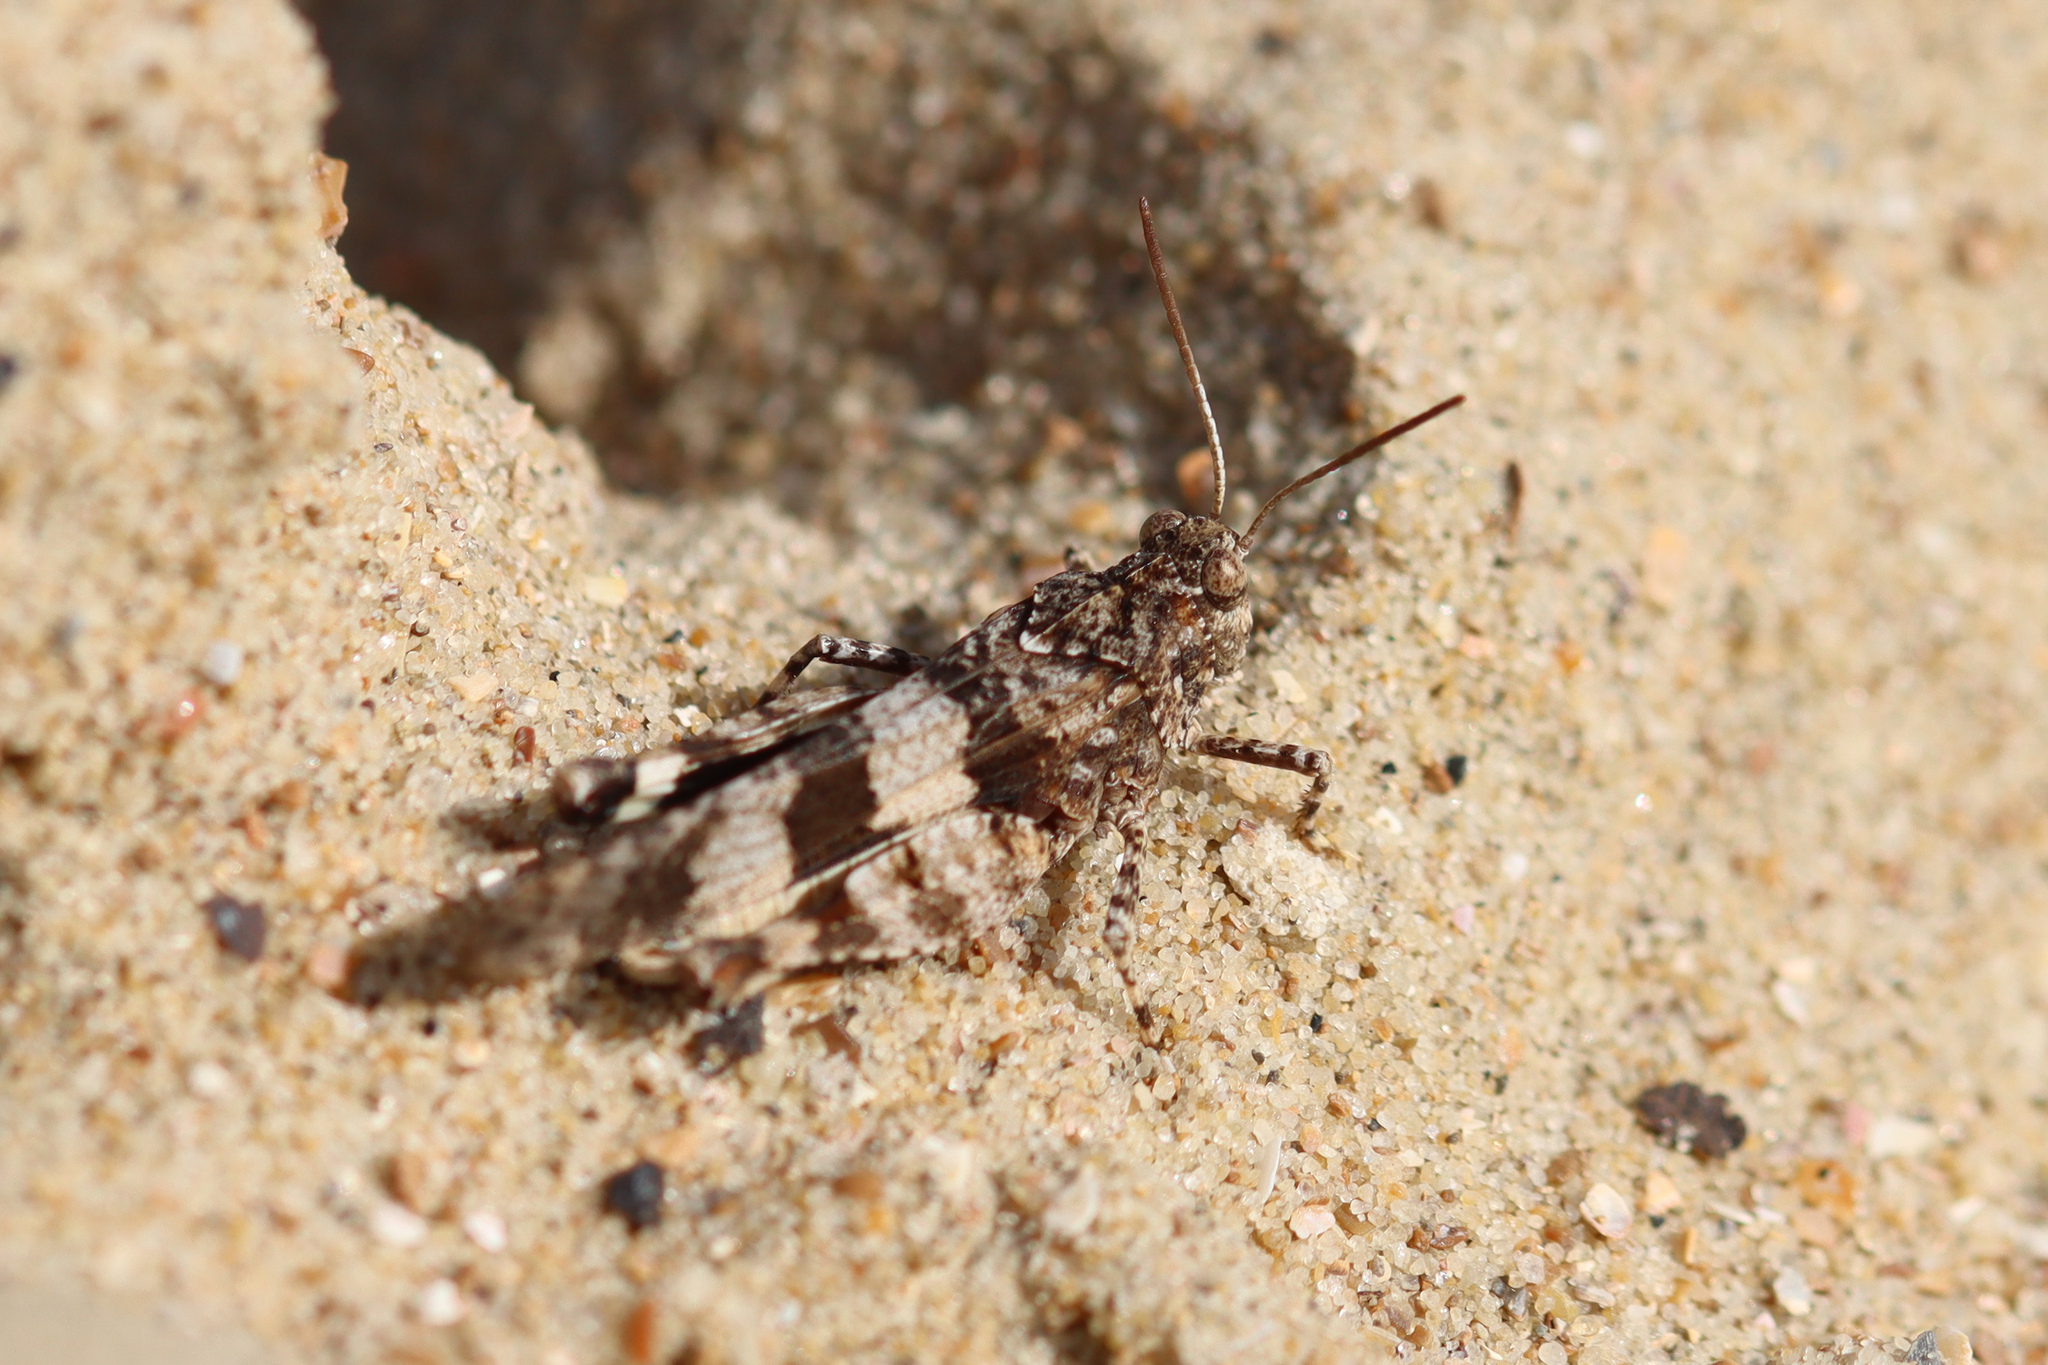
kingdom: Animalia
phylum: Arthropoda
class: Insecta
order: Orthoptera
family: Acrididae
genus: Oedipoda
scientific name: Oedipoda caerulescens
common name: Blue-winged grasshopper
